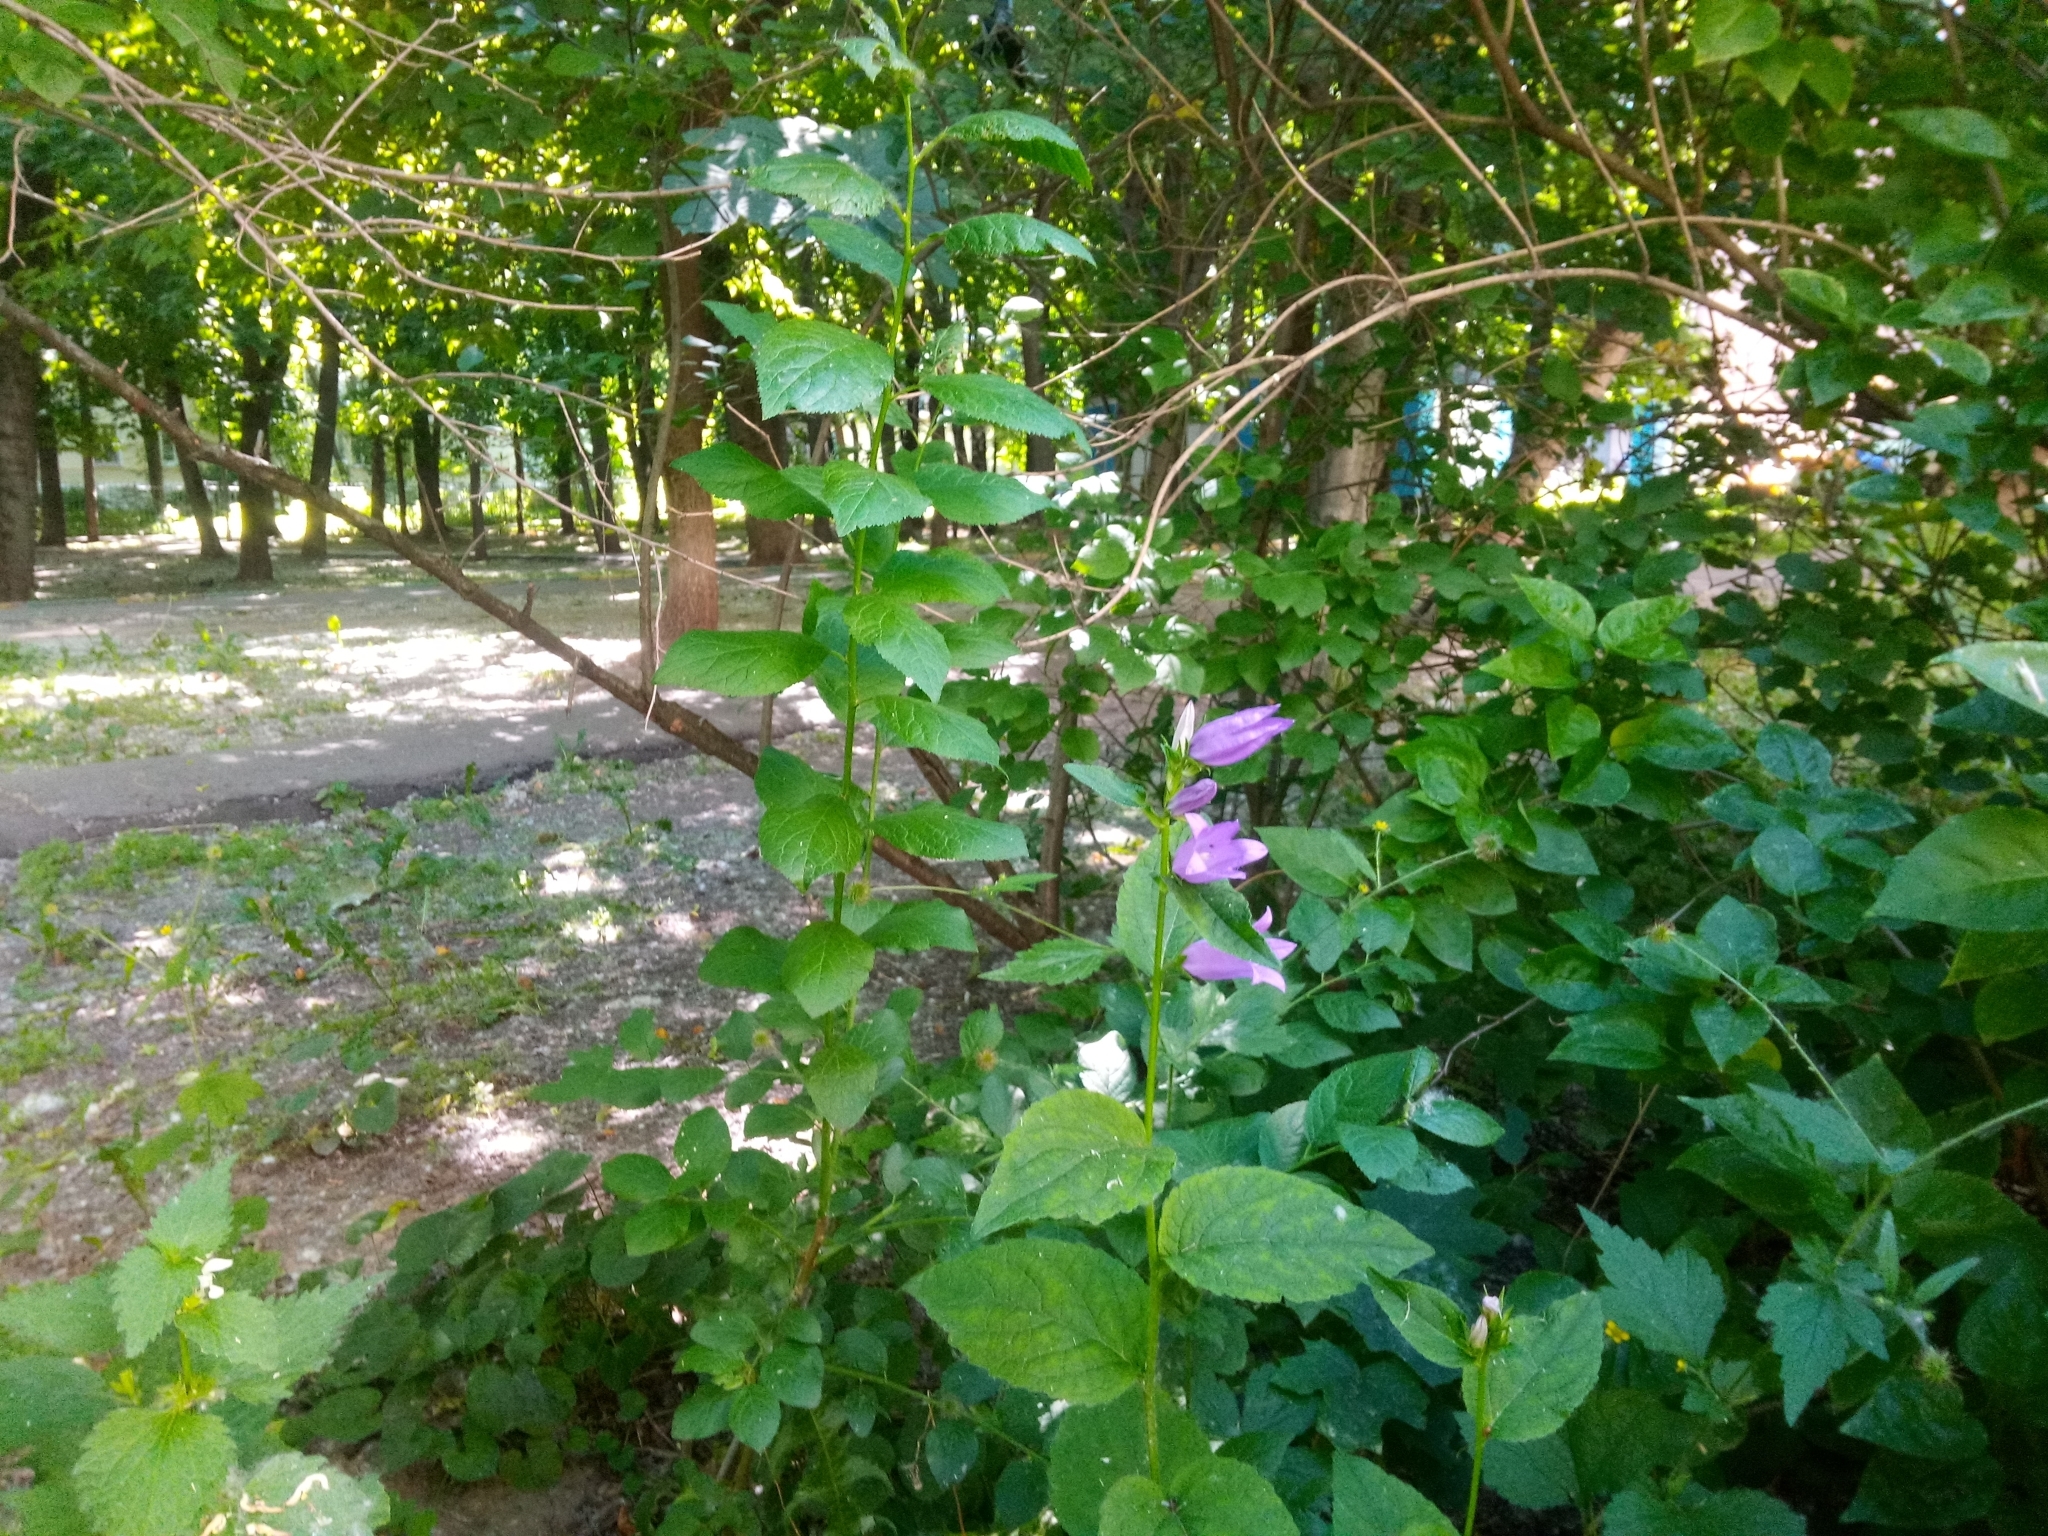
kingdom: Plantae
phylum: Tracheophyta
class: Magnoliopsida
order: Asterales
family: Campanulaceae
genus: Campanula
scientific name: Campanula latifolia
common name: Giant bellflower
